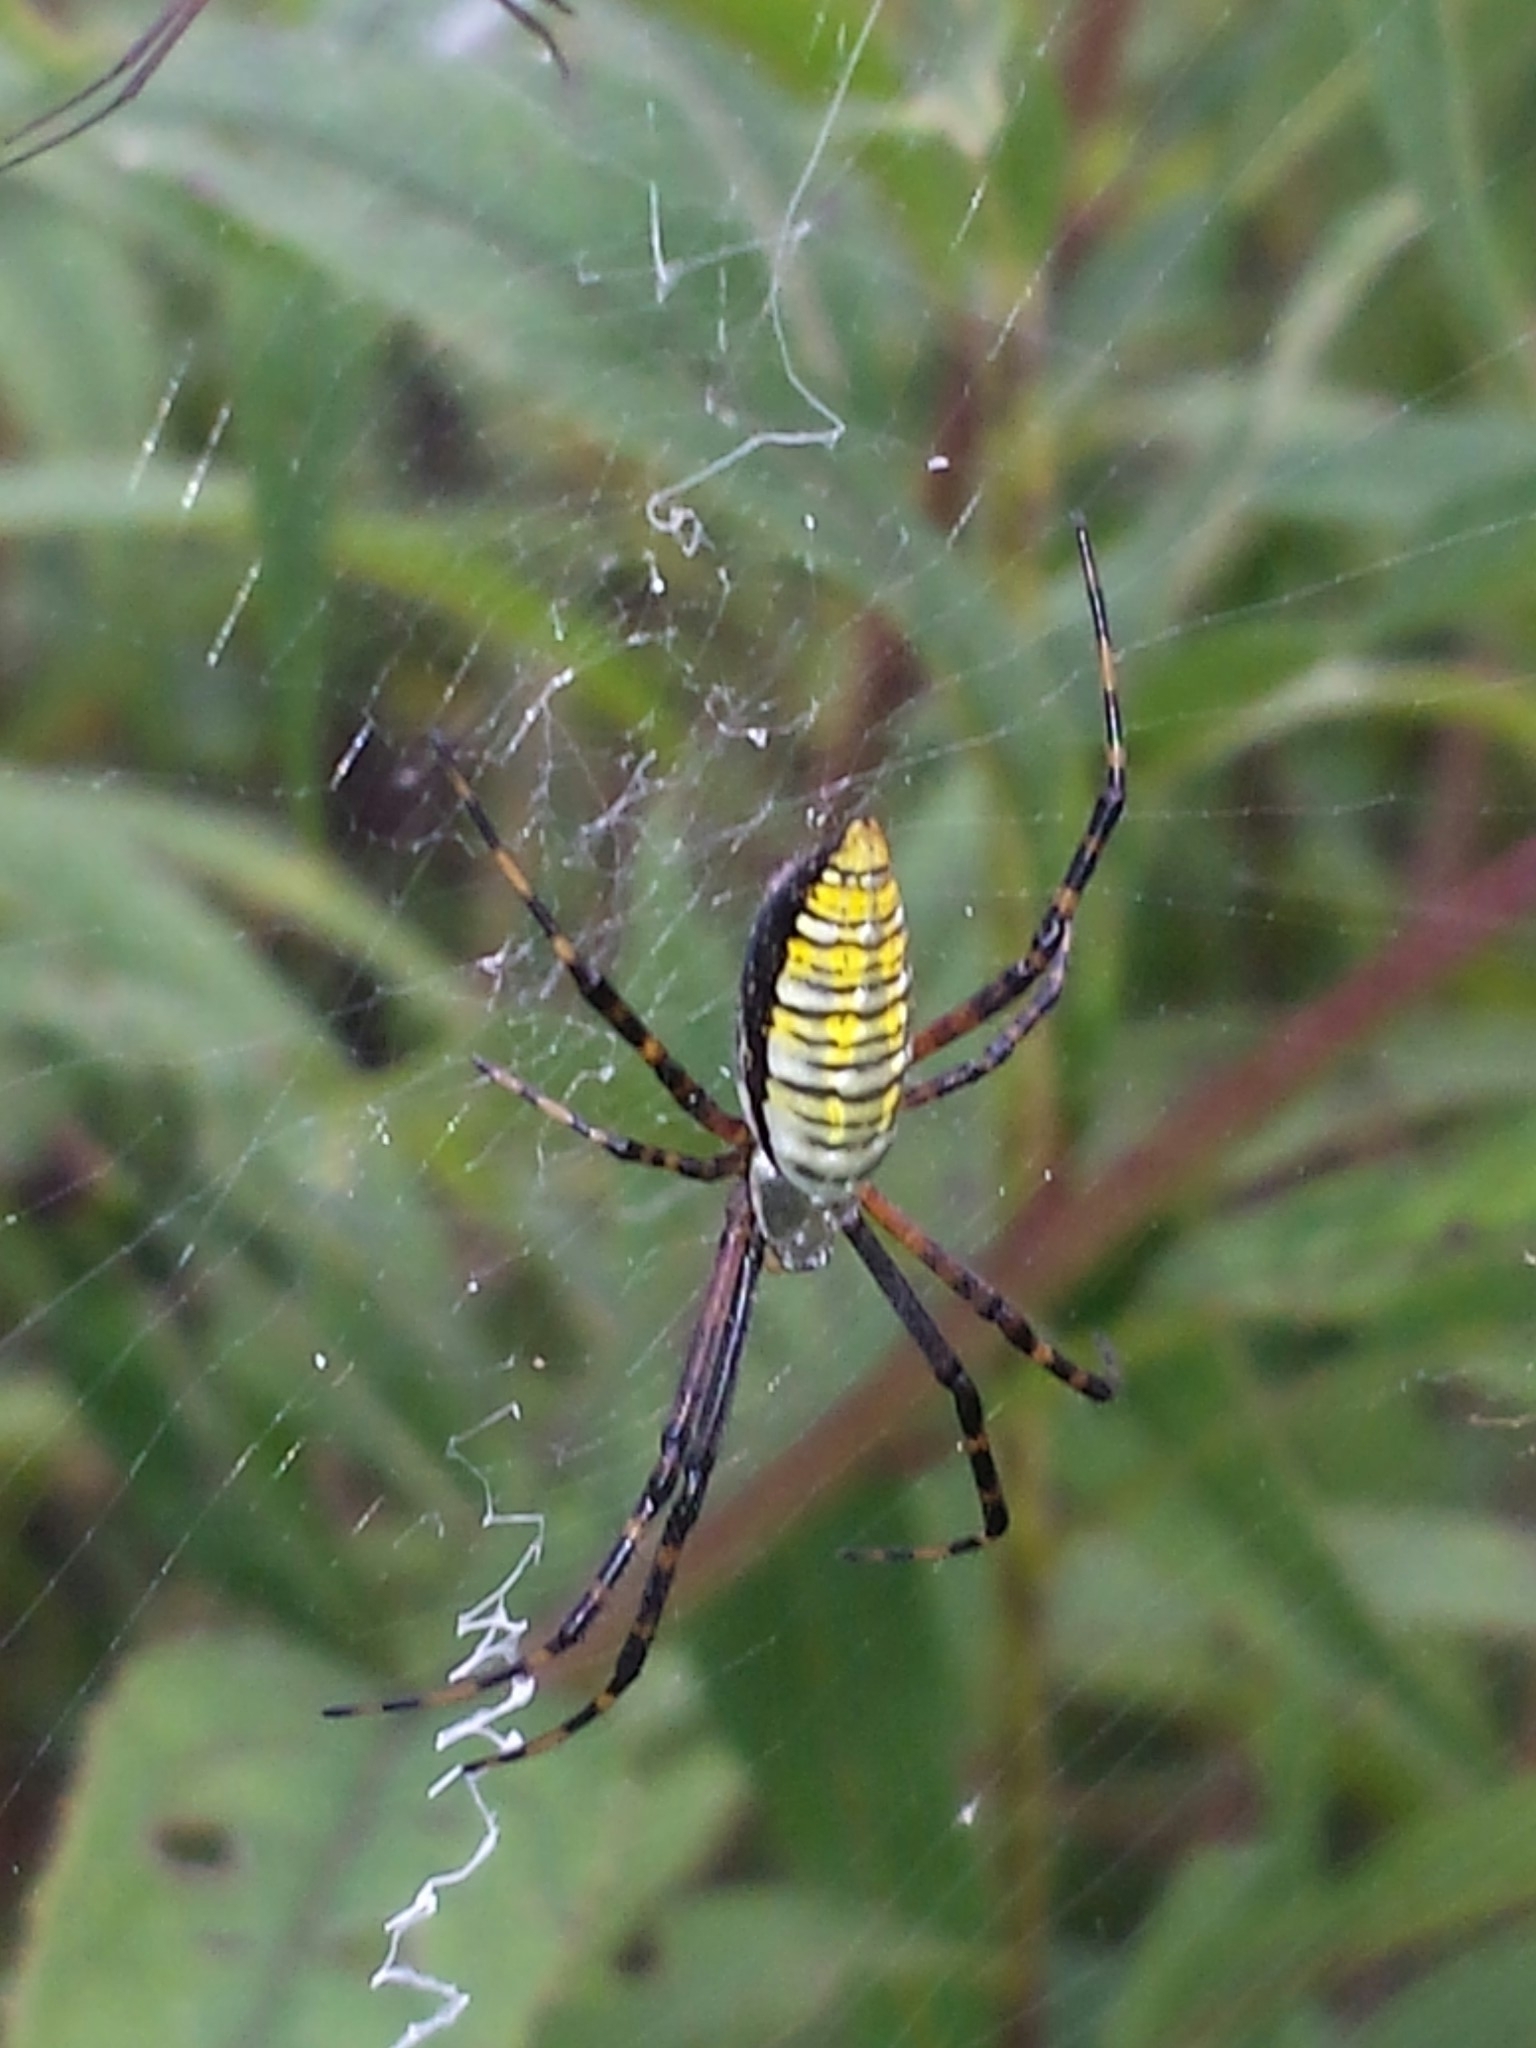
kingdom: Animalia
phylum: Arthropoda
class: Arachnida
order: Araneae
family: Araneidae
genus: Argiope
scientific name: Argiope trifasciata
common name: Banded garden spider
